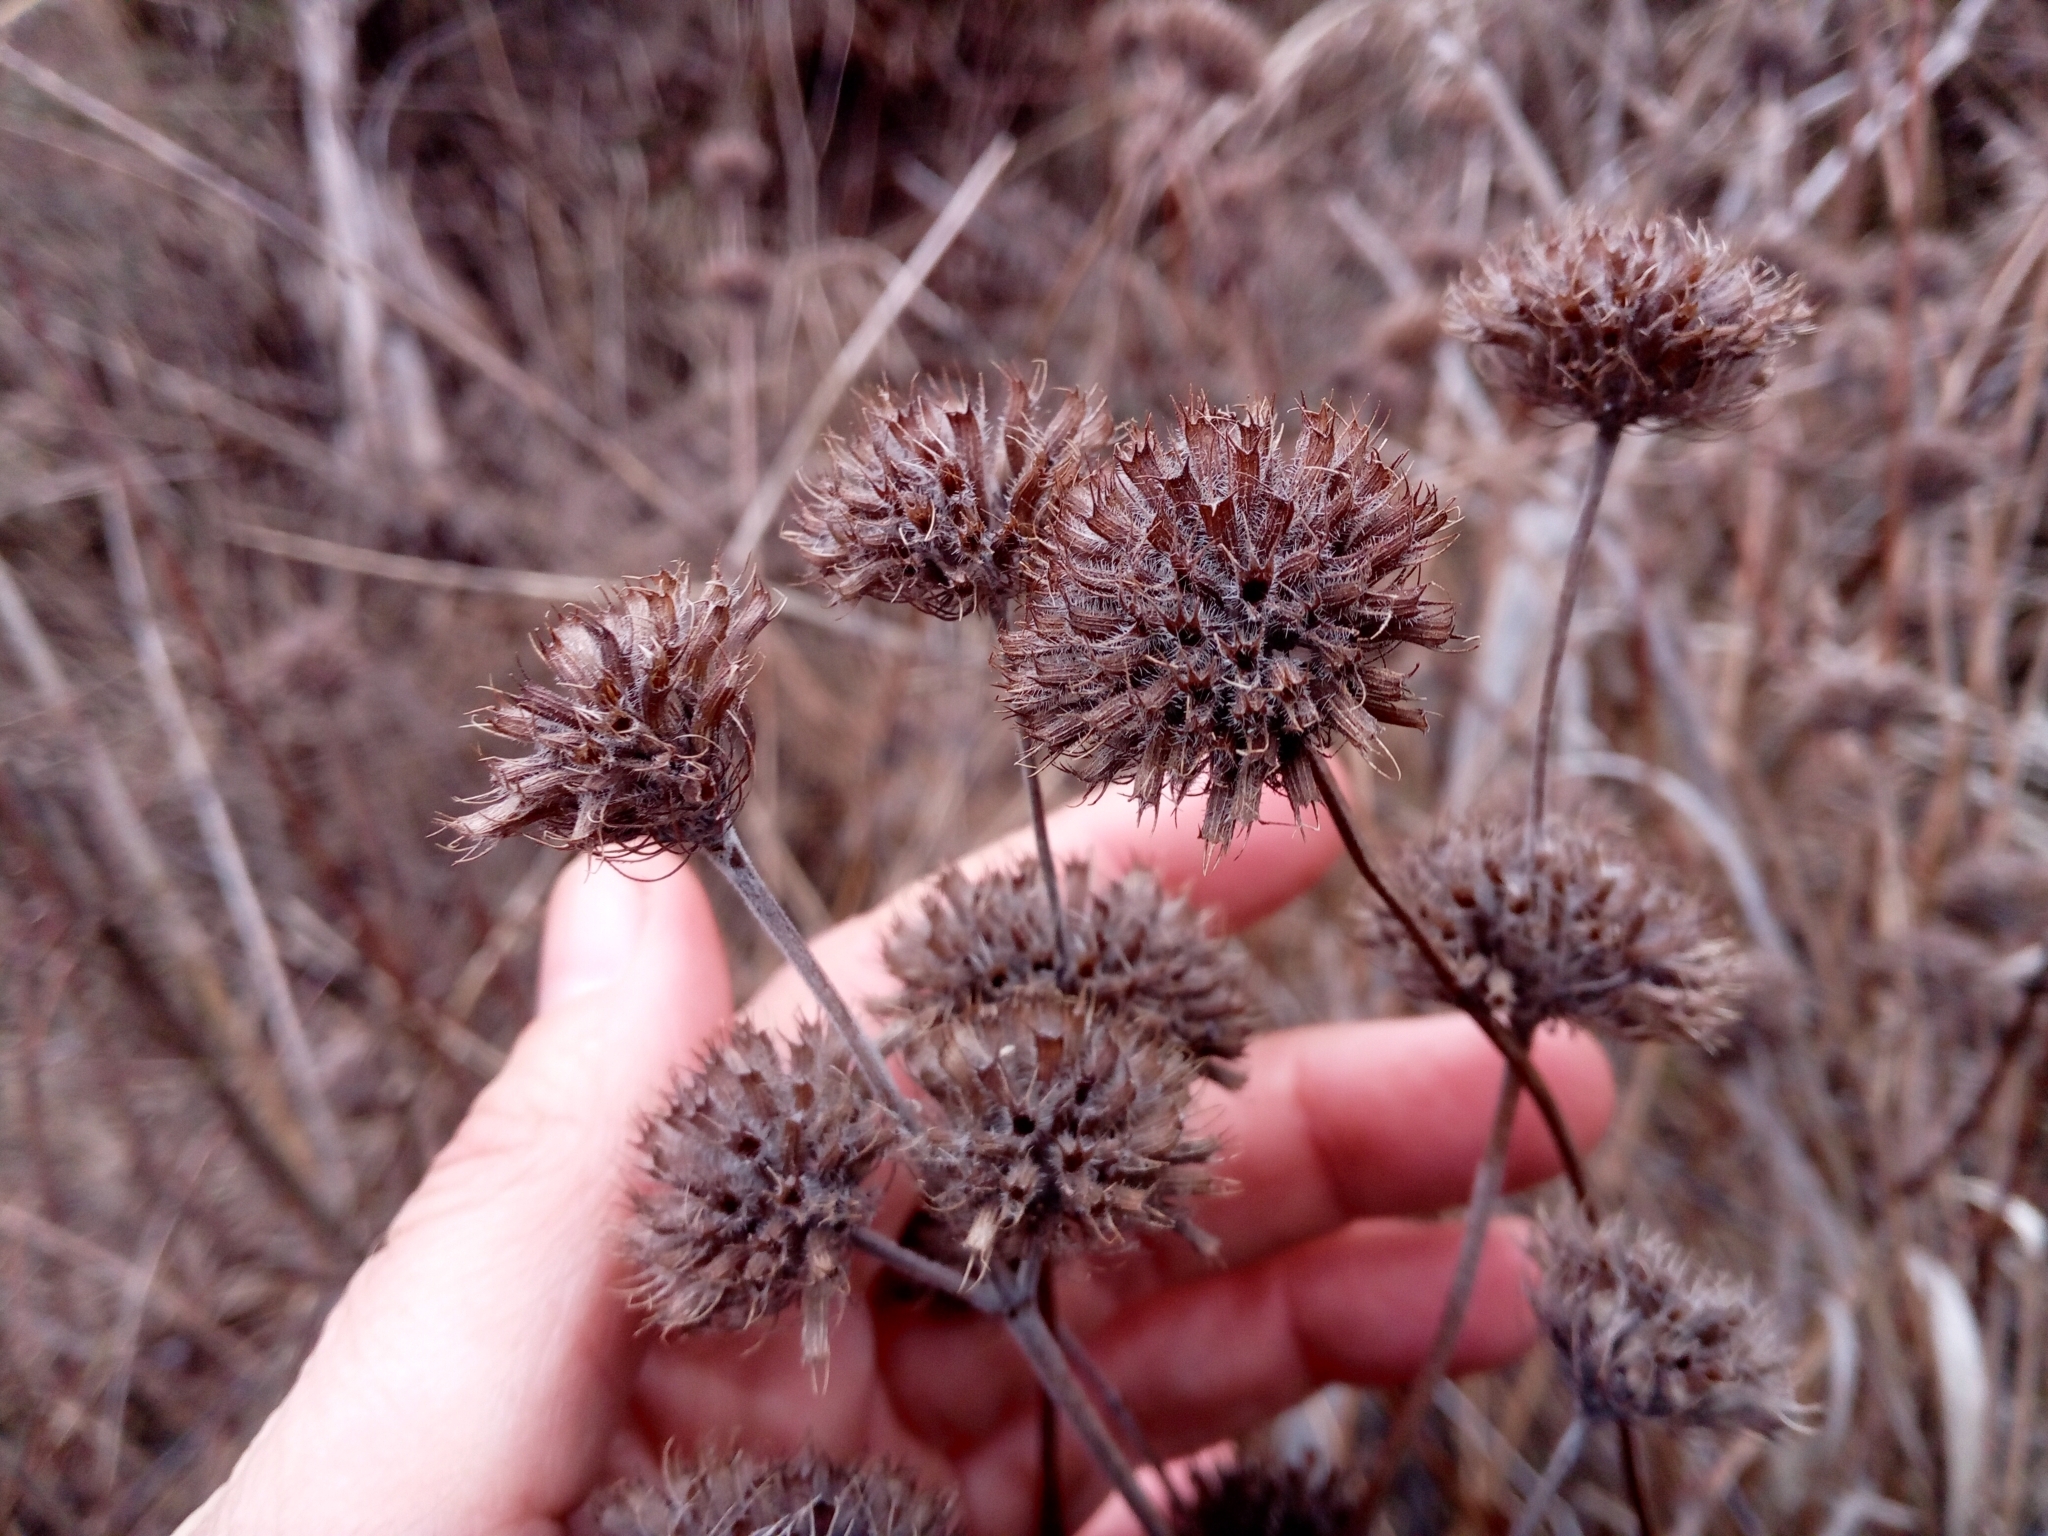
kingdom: Plantae
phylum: Tracheophyta
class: Magnoliopsida
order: Lamiales
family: Lamiaceae
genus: Clinopodium
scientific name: Clinopodium vulgare
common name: Wild basil
